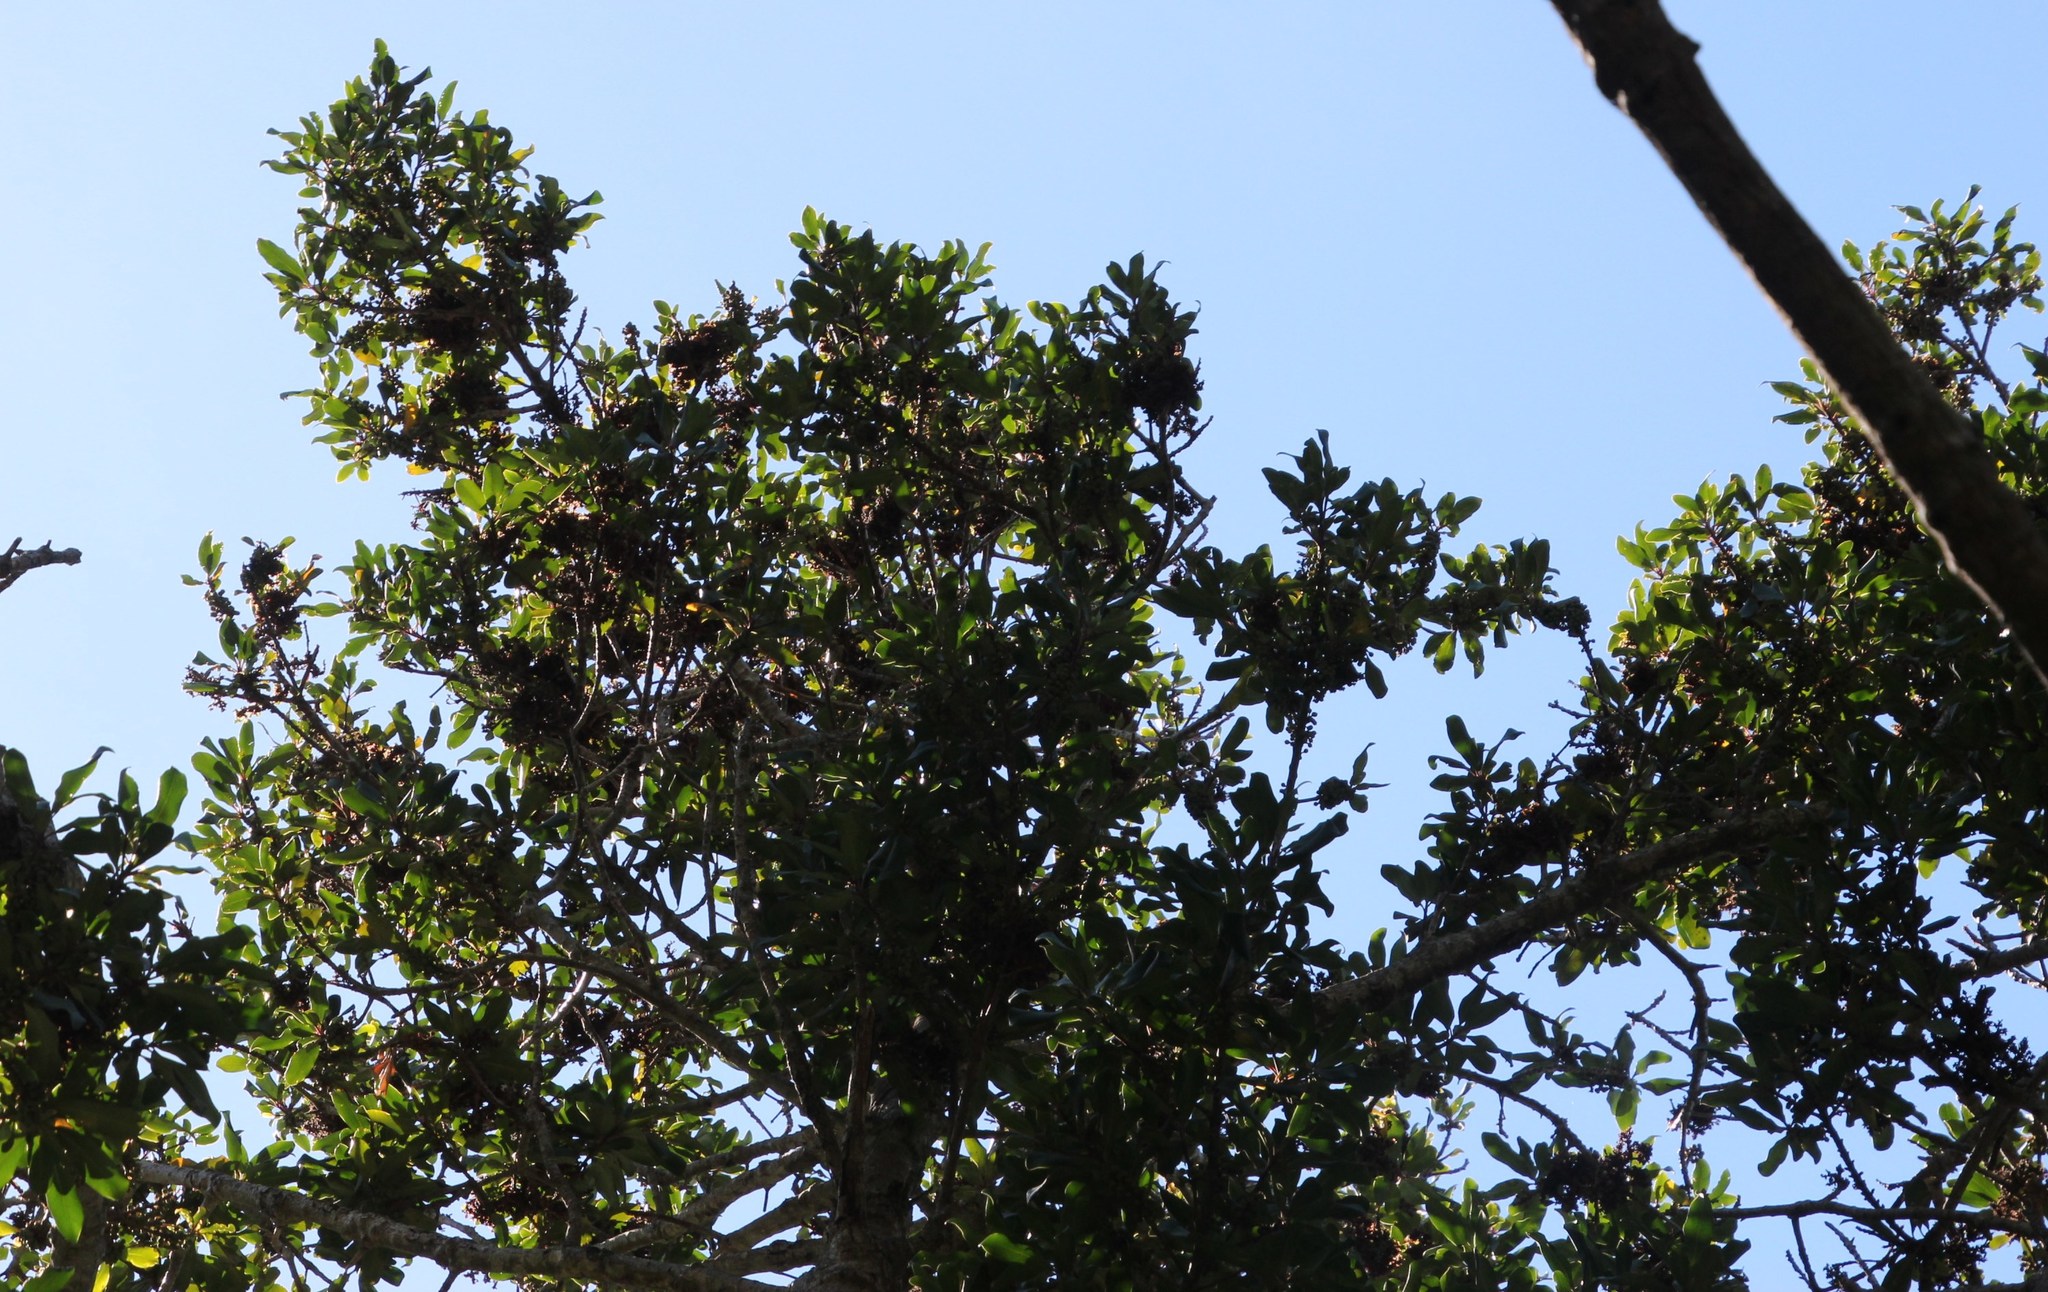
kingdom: Plantae
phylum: Tracheophyta
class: Magnoliopsida
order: Ericales
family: Primulaceae
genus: Myrsine
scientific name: Myrsine melanophloeos
